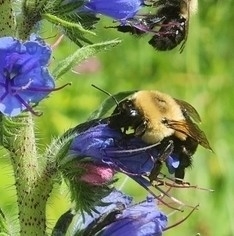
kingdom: Animalia
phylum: Arthropoda
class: Insecta
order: Hymenoptera
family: Apidae
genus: Bombus
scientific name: Bombus impatiens
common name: Common eastern bumble bee
